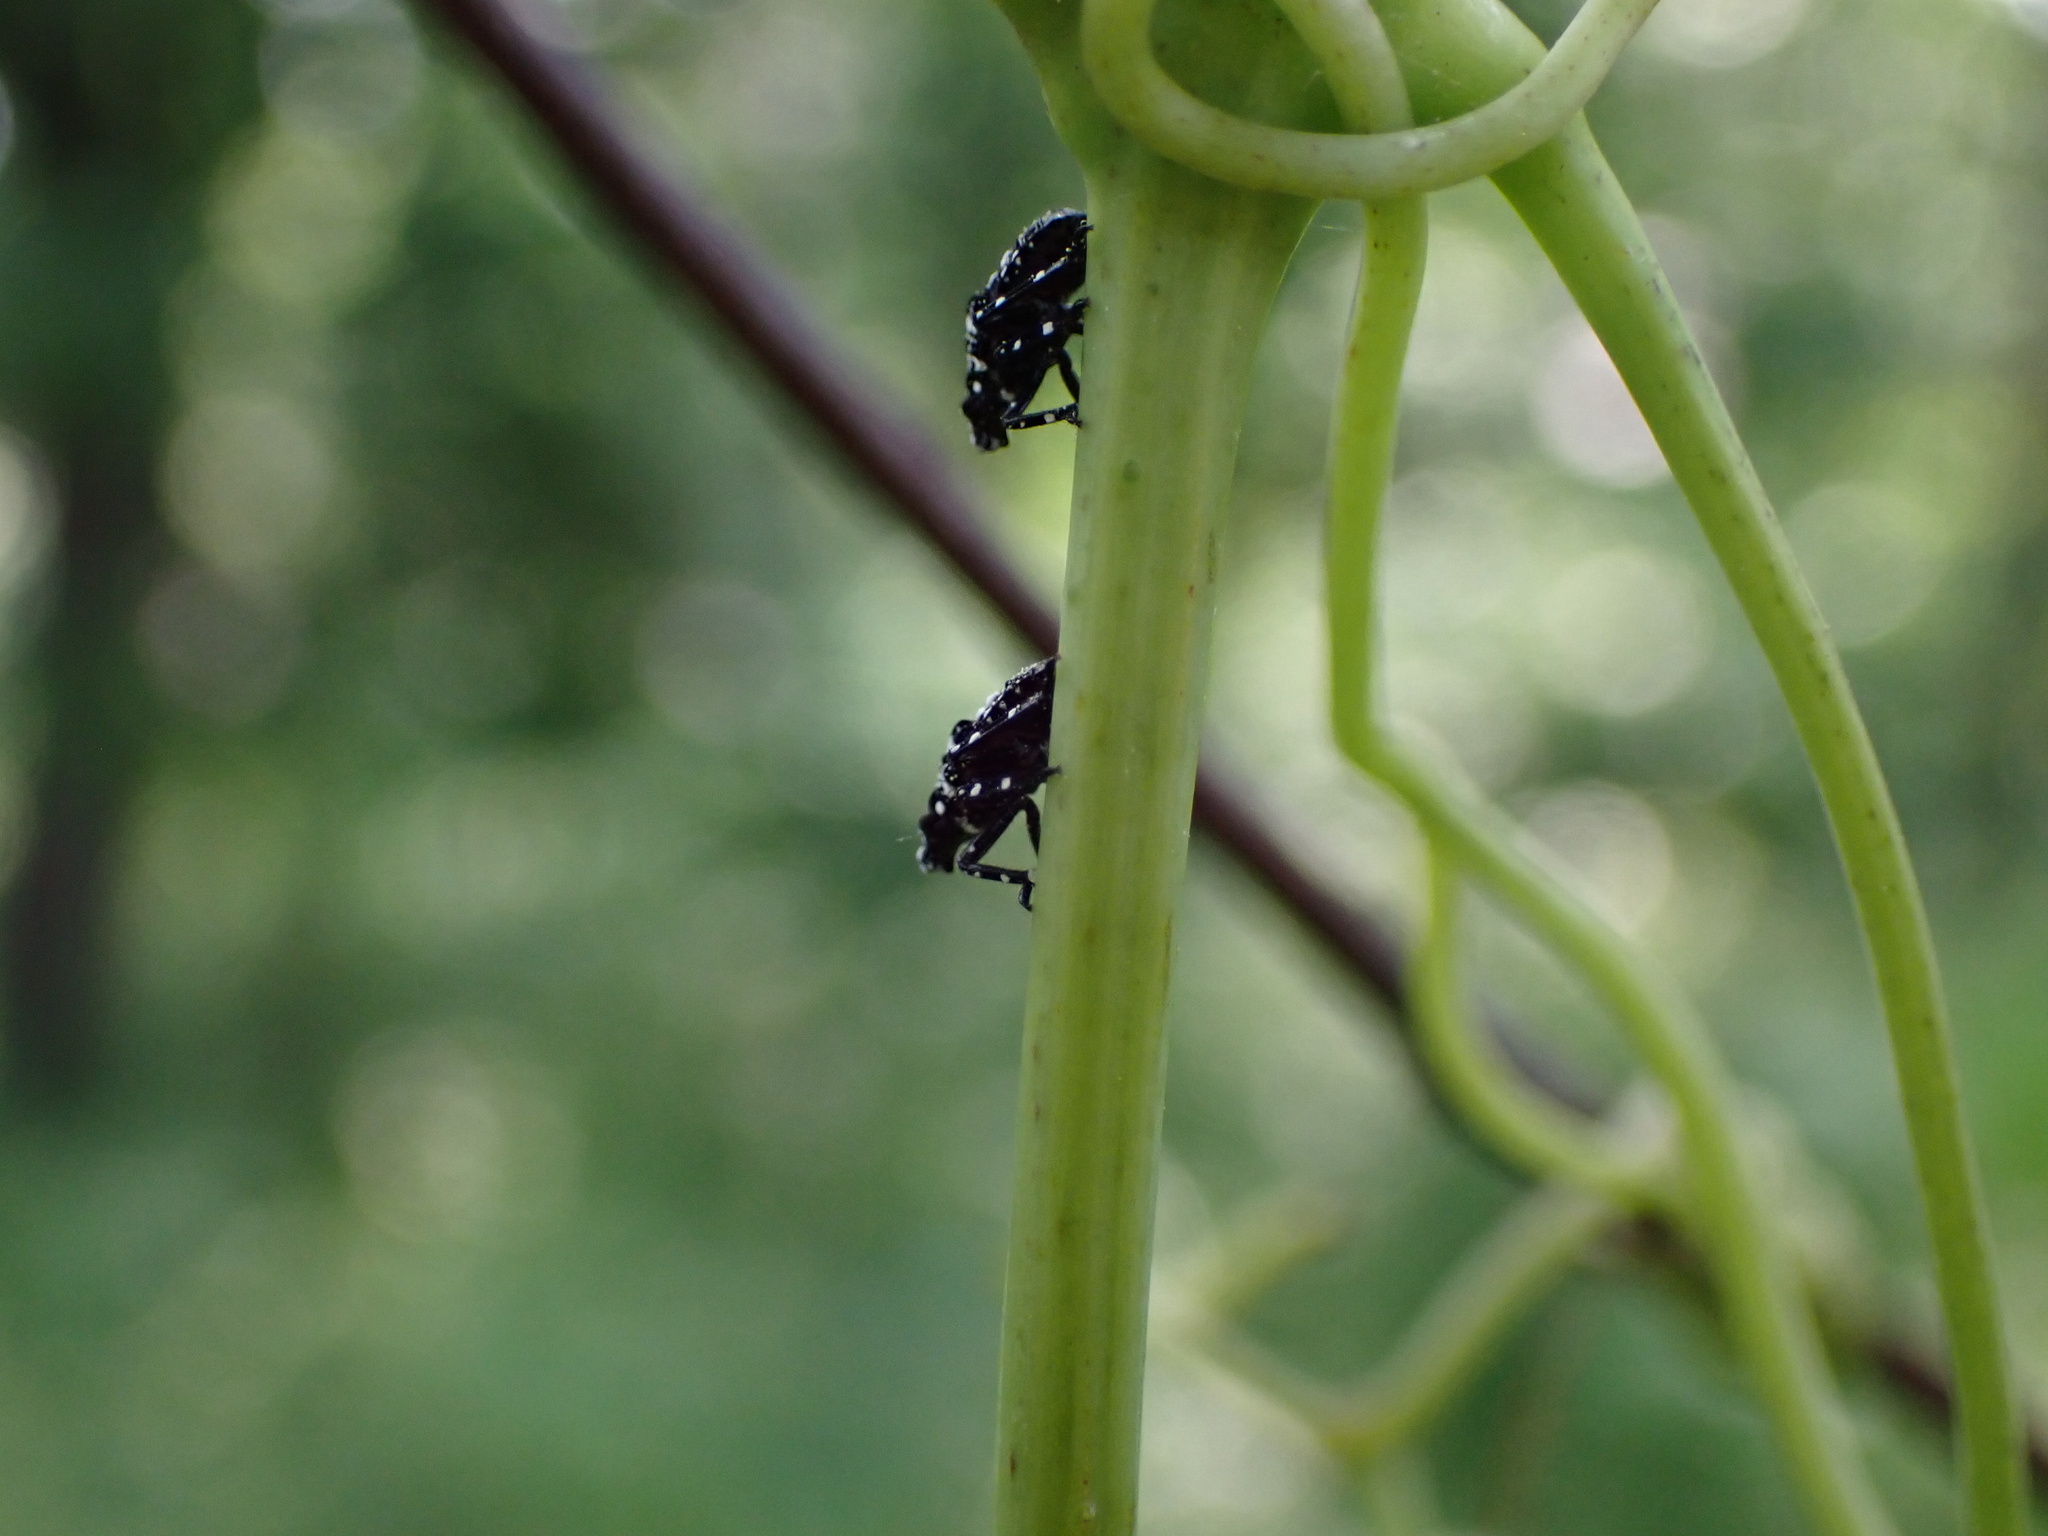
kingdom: Animalia
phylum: Arthropoda
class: Insecta
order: Hemiptera
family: Fulgoridae
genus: Lycorma
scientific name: Lycorma delicatula
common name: Spotted lanternfly
